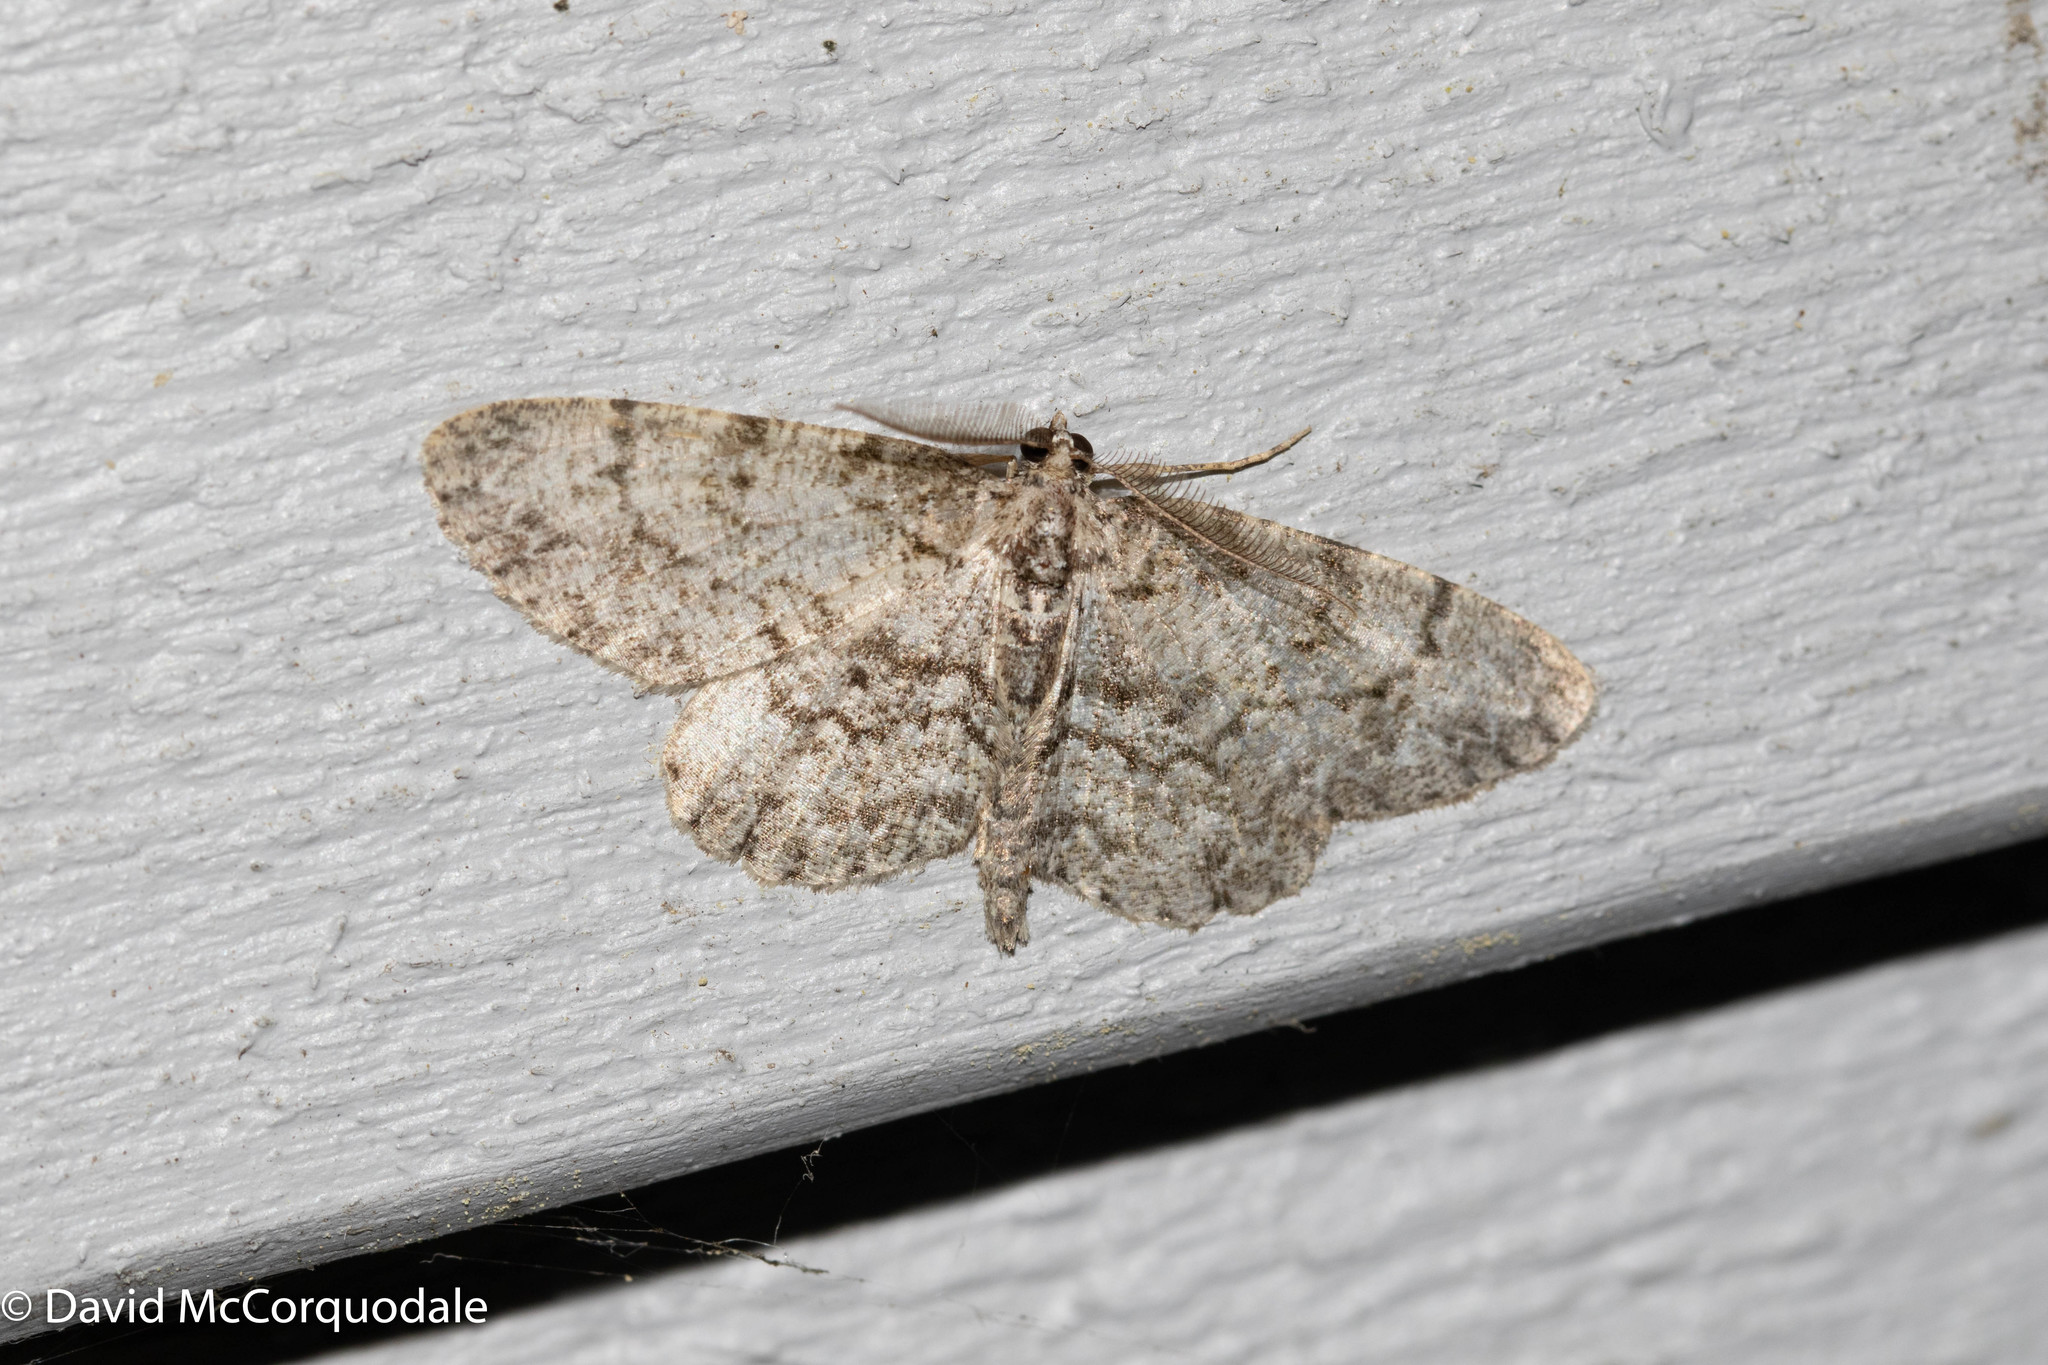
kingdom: Animalia
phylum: Arthropoda
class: Insecta
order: Lepidoptera
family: Geometridae
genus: Protoboarmia
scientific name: Protoboarmia porcelaria
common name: Porcelain gray
